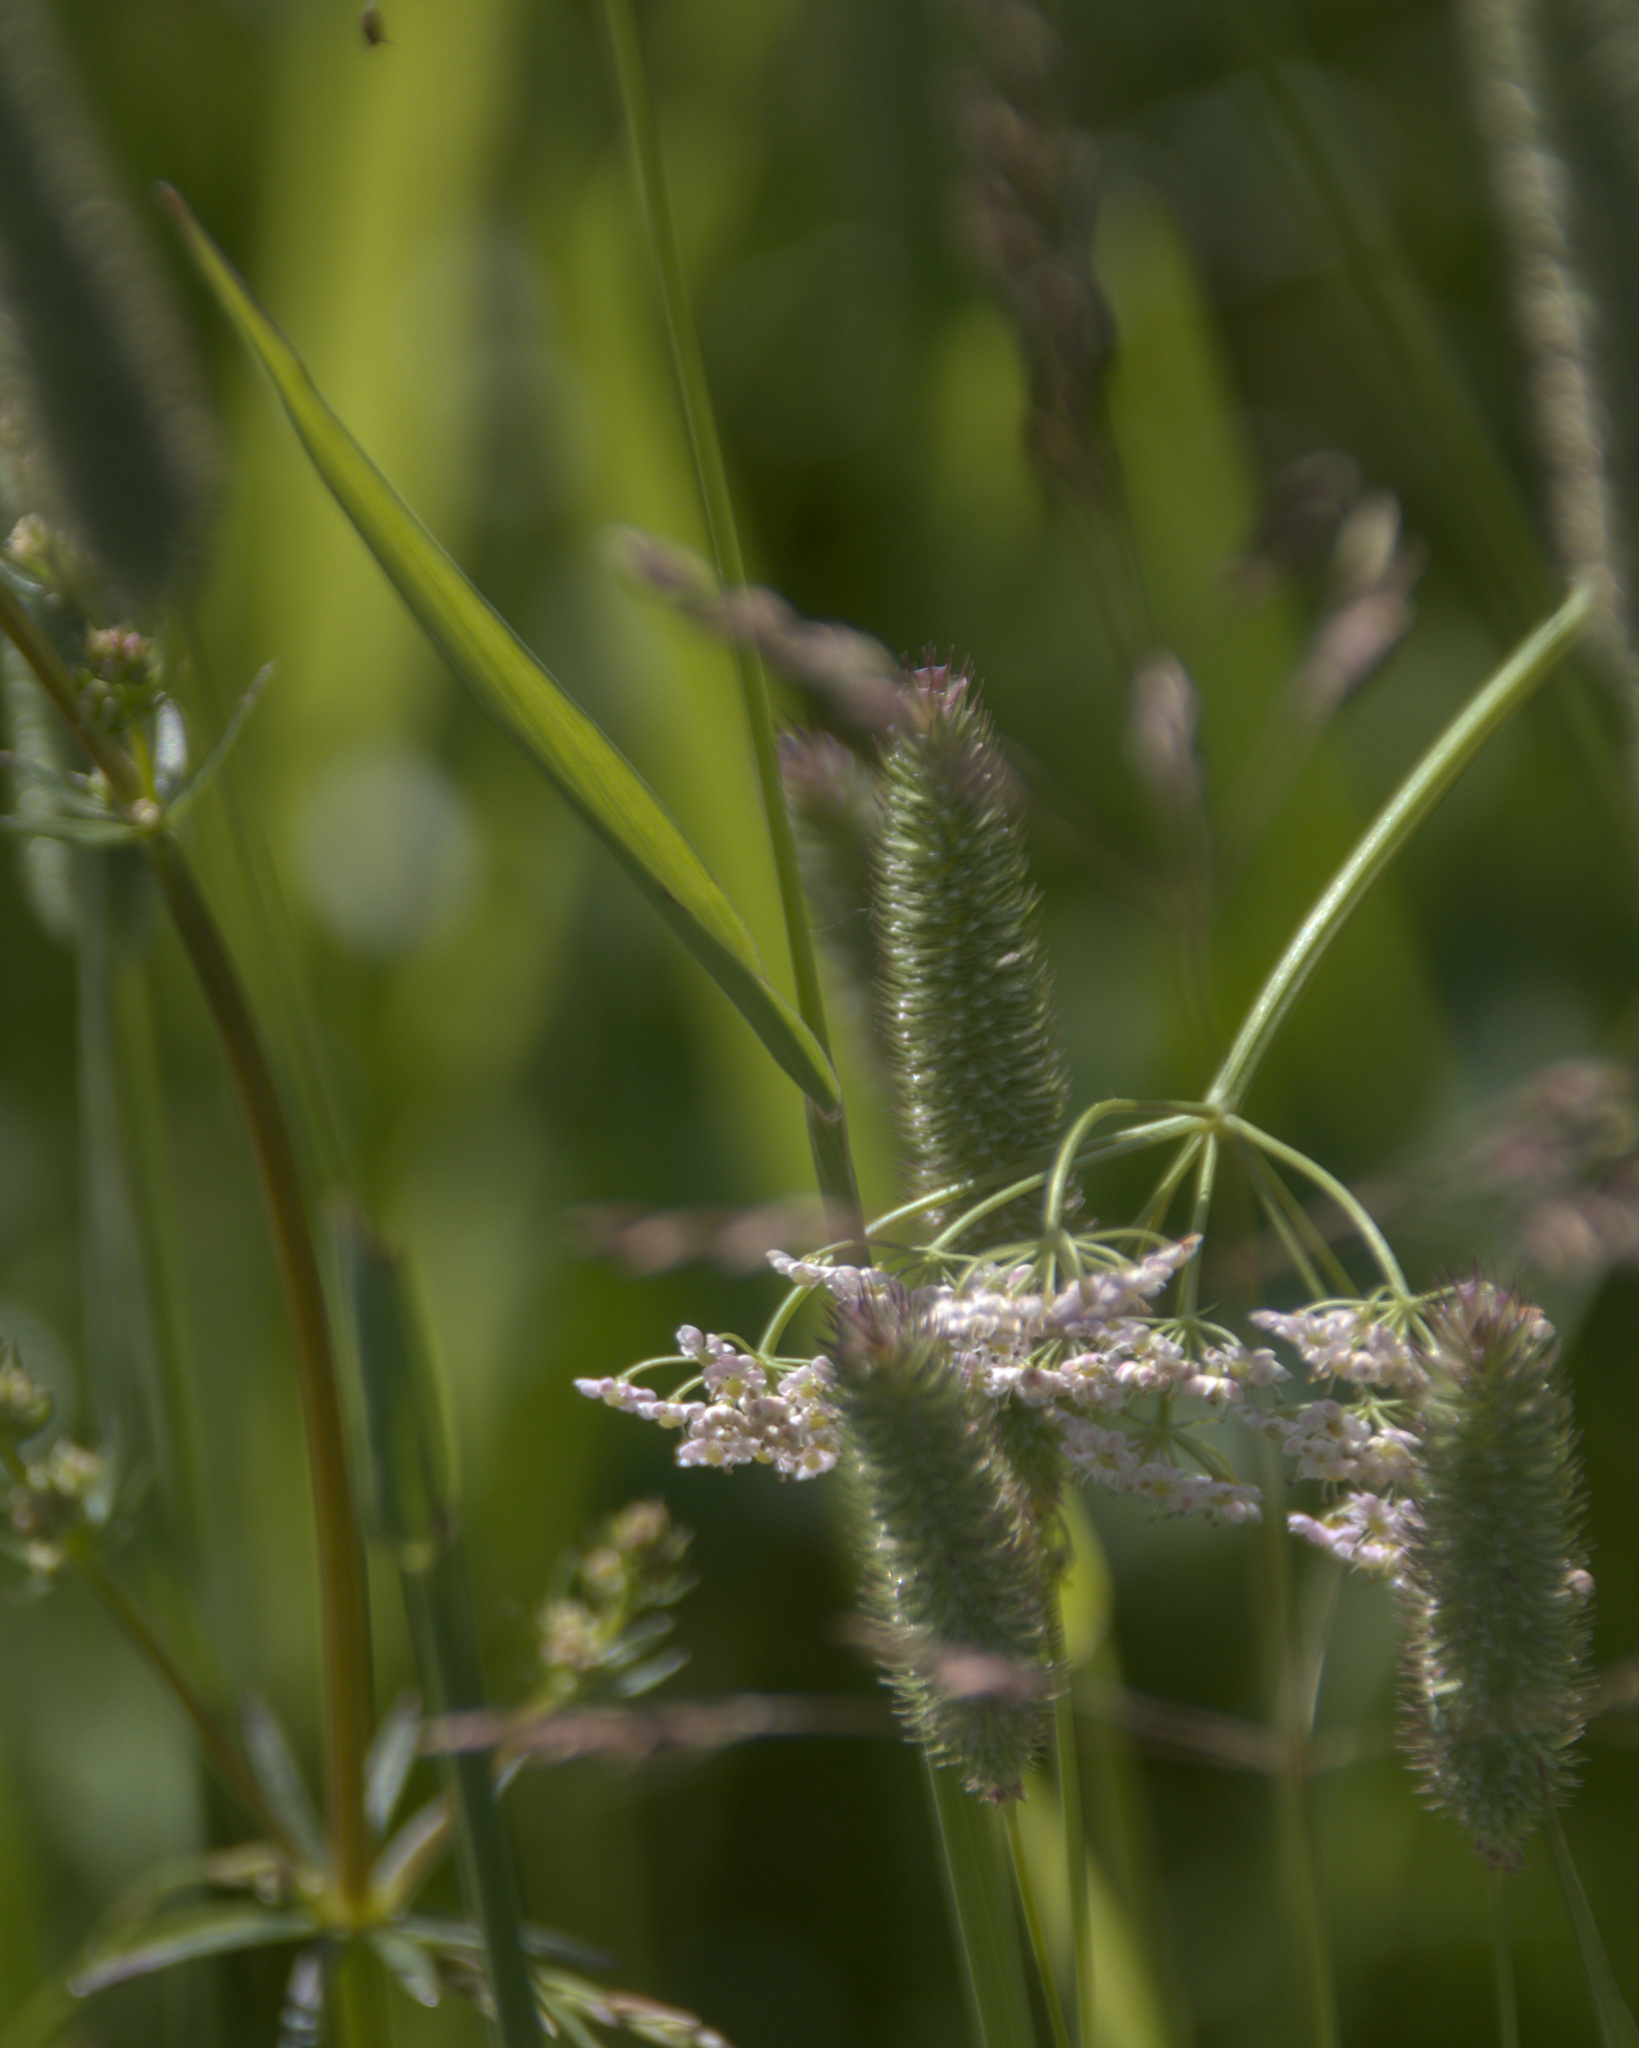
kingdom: Plantae
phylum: Tracheophyta
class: Liliopsida
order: Poales
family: Poaceae
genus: Phleum
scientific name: Phleum pratense
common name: Timothy grass
